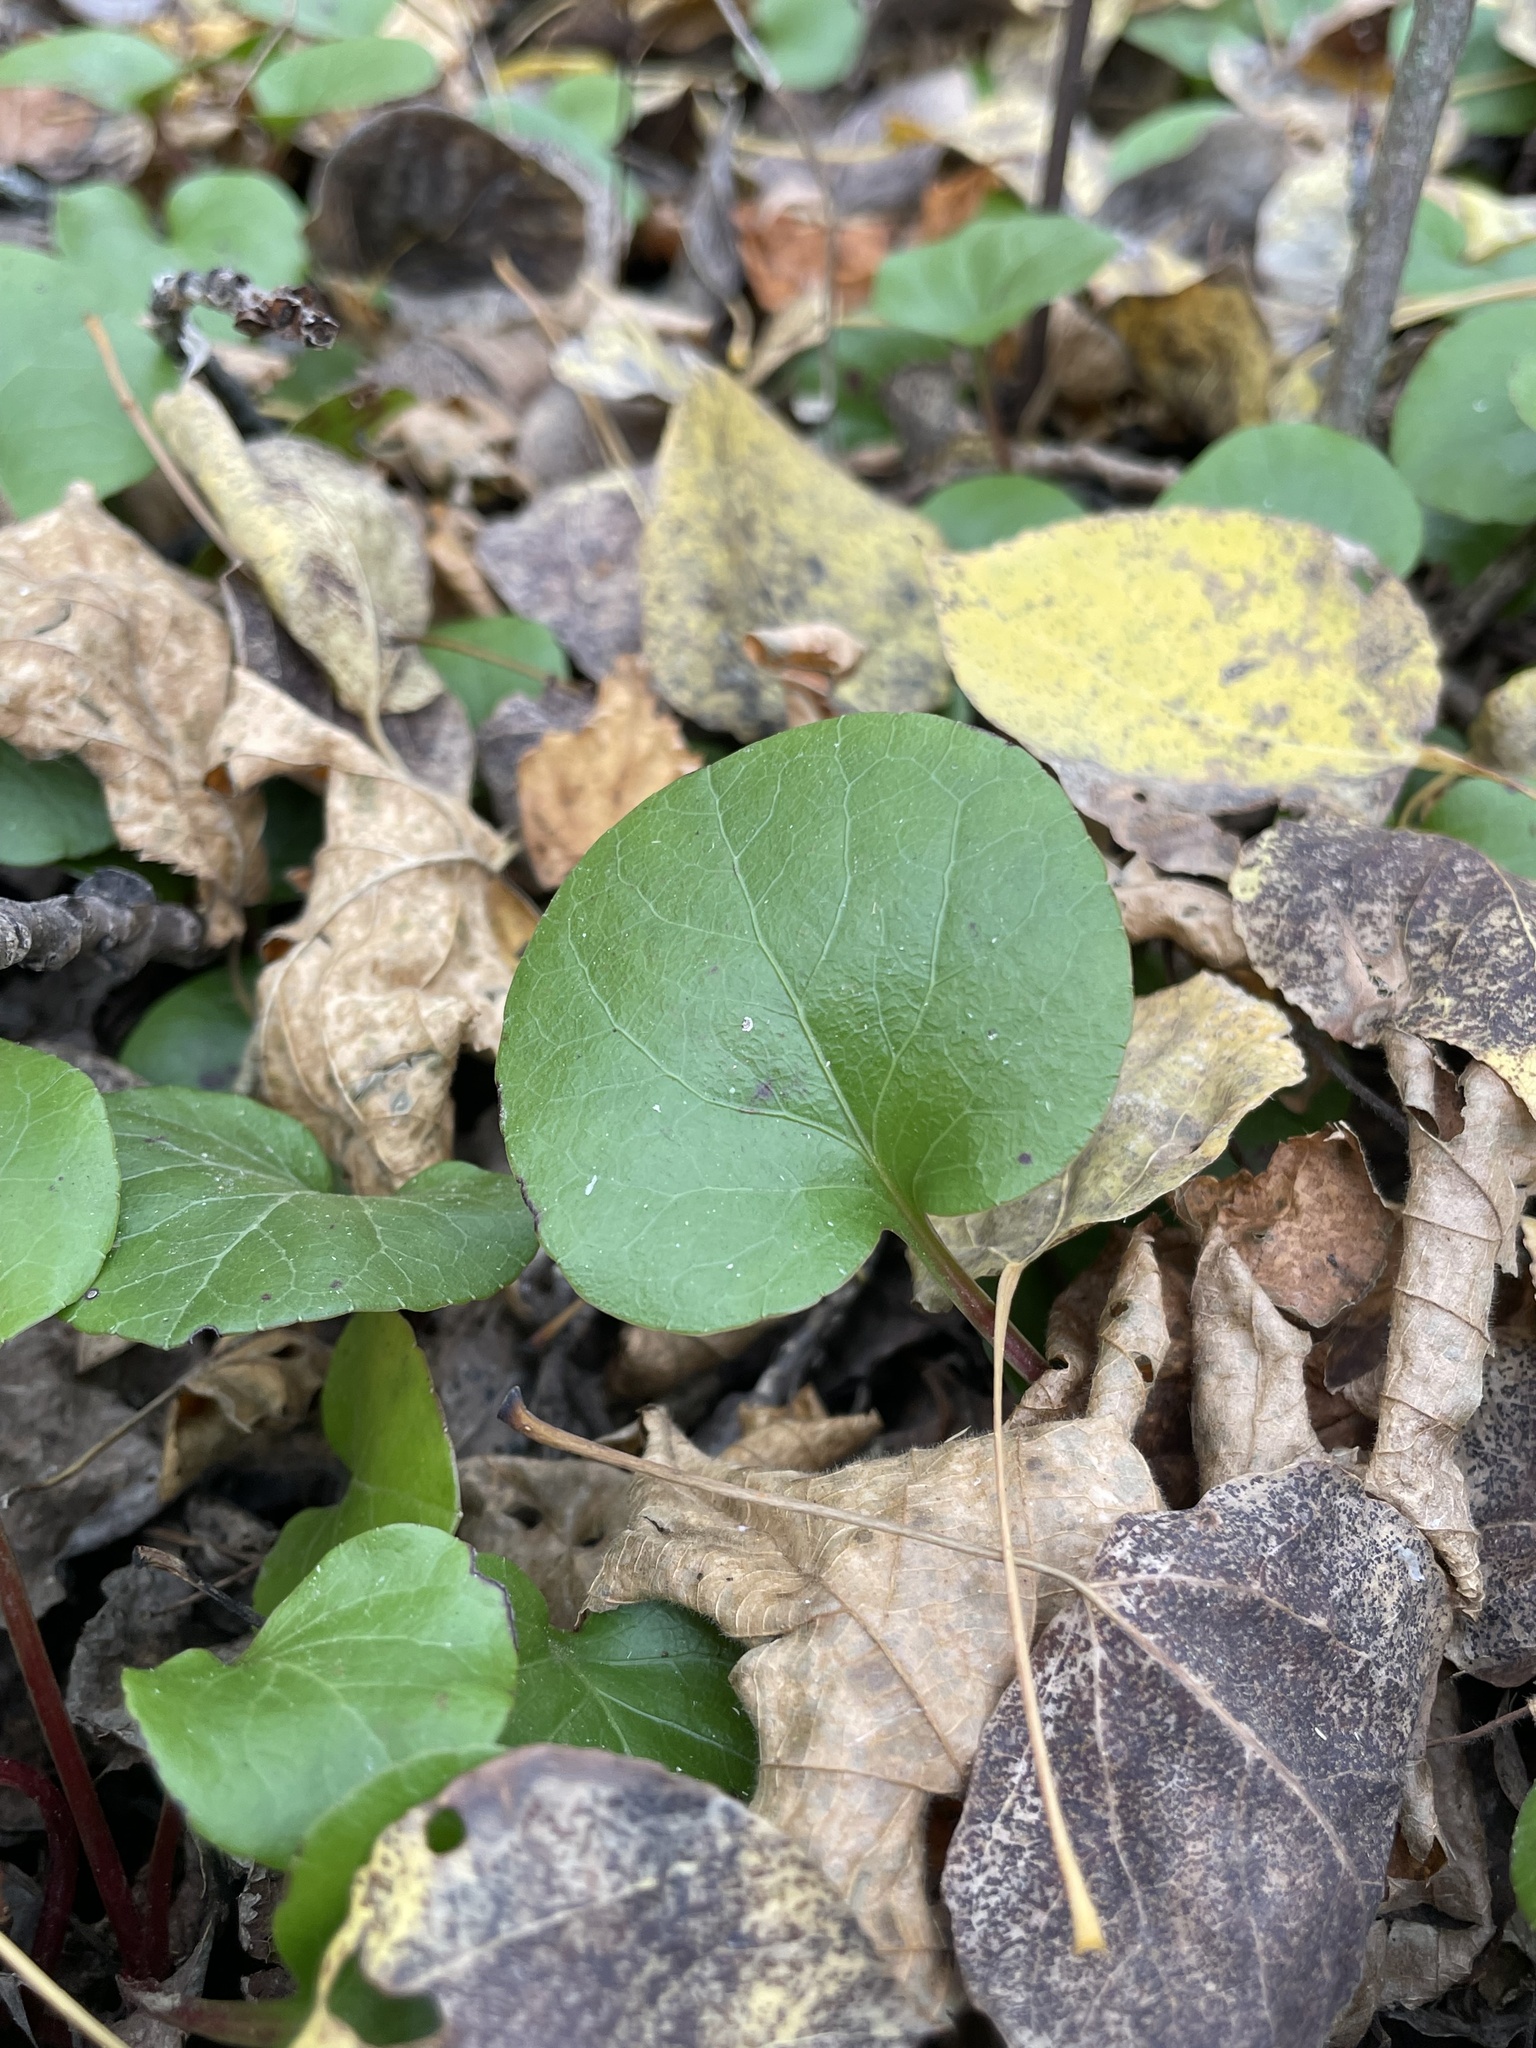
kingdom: Plantae
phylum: Tracheophyta
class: Magnoliopsida
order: Ericales
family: Ericaceae
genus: Pyrola
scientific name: Pyrola asarifolia
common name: Bog wintergreen
